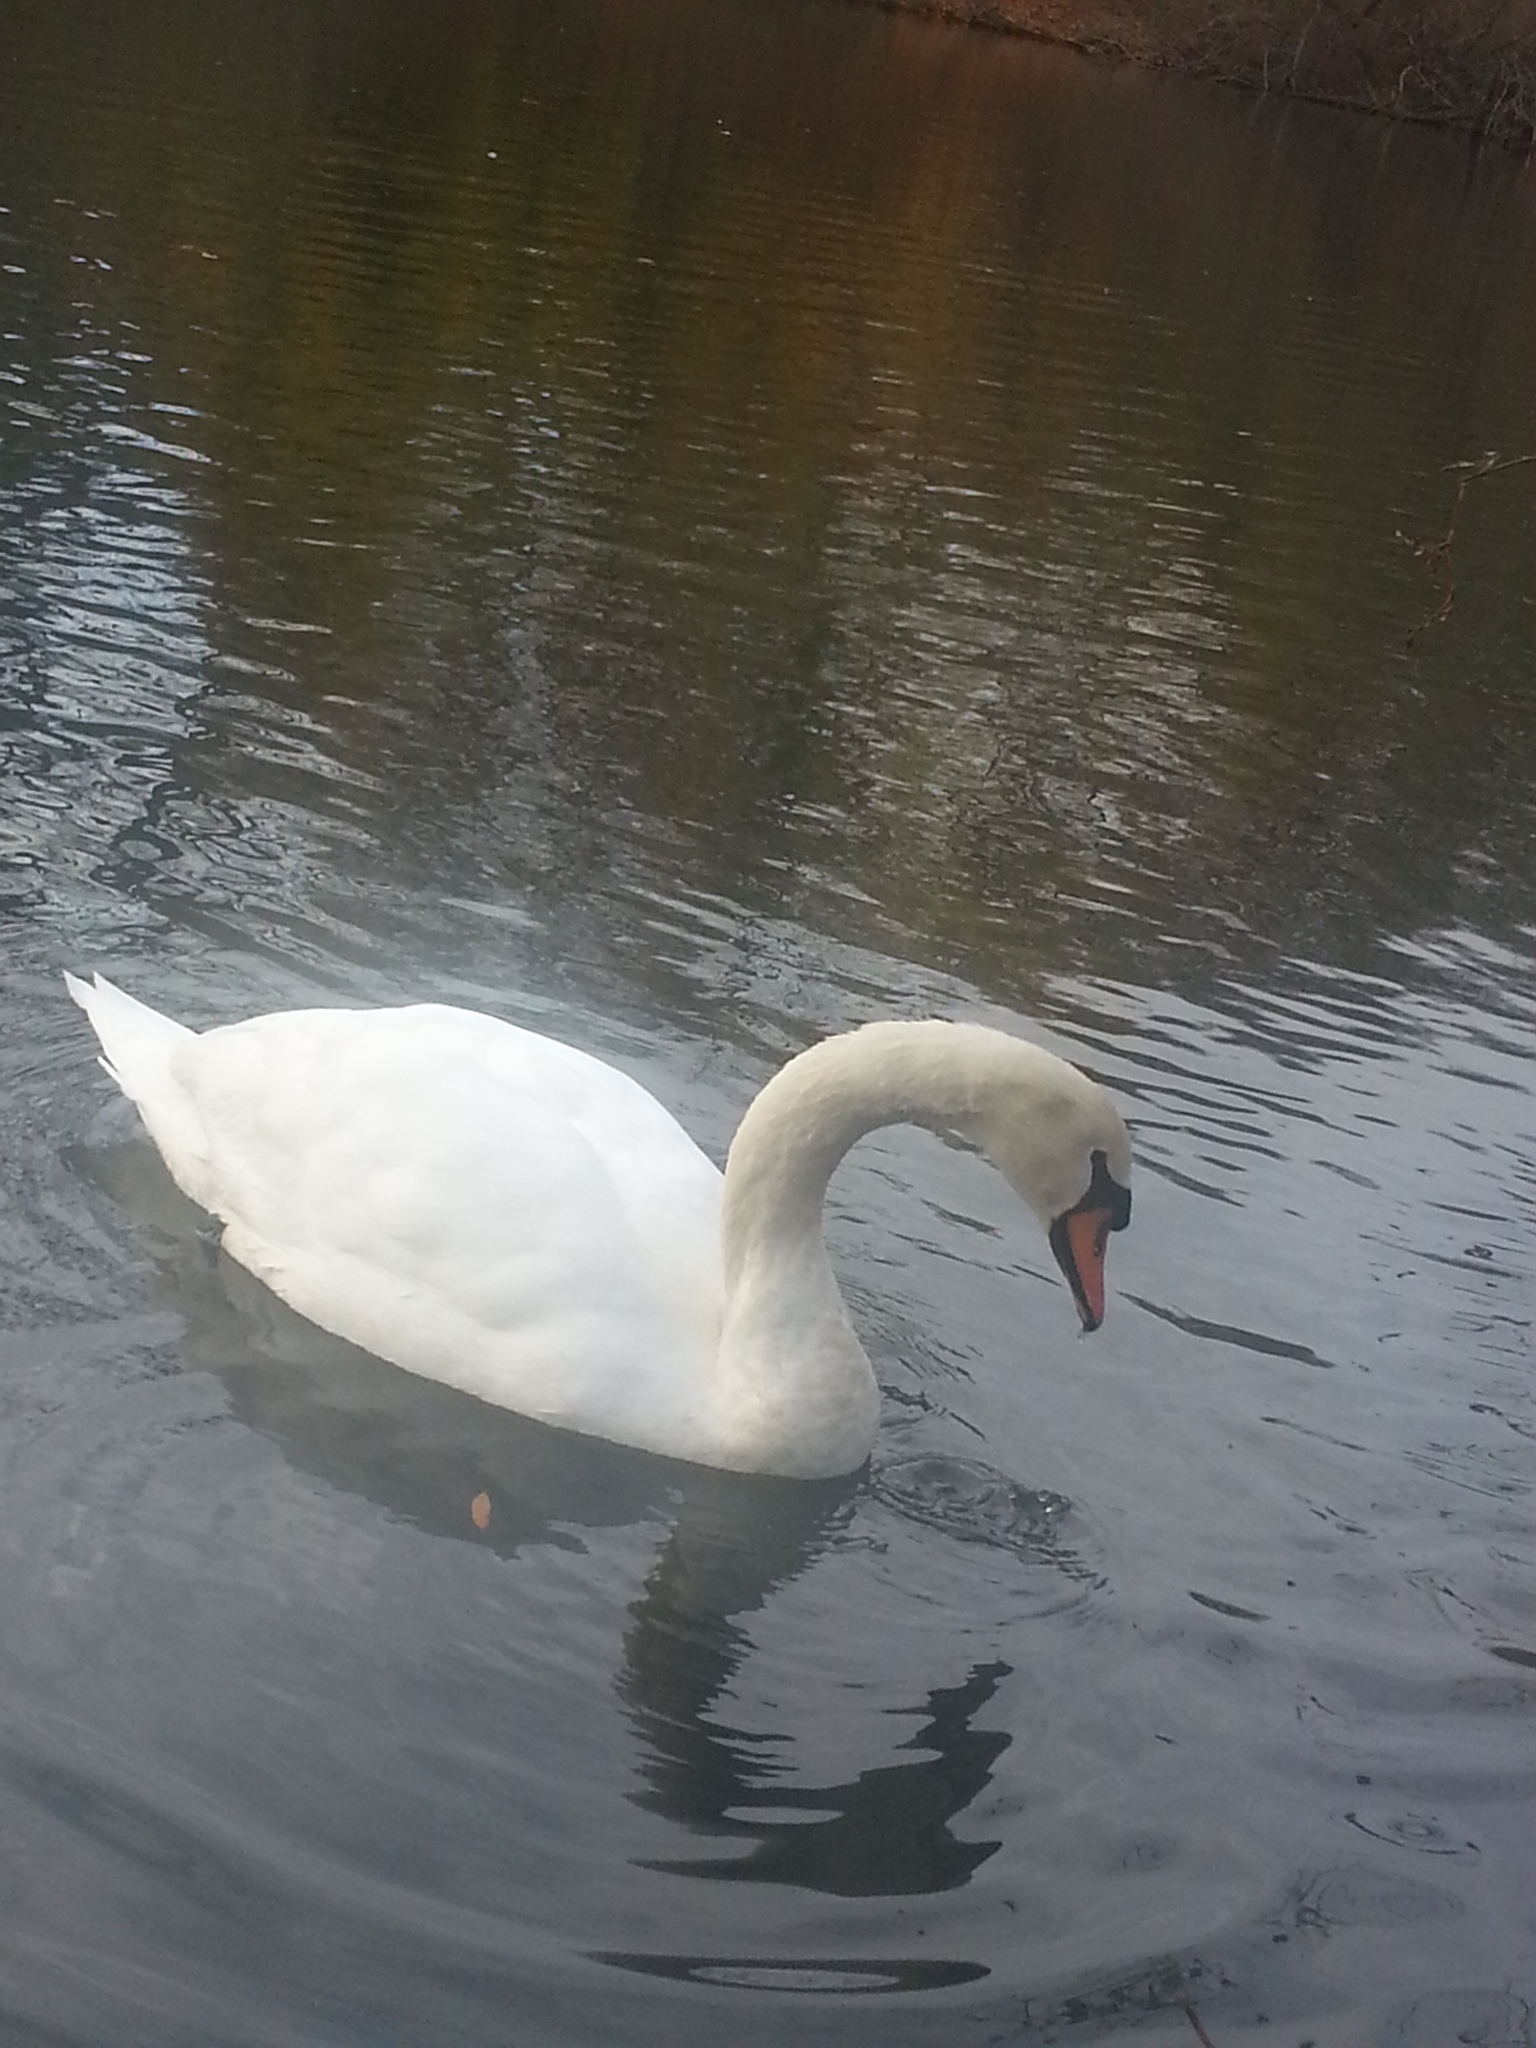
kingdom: Animalia
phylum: Chordata
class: Aves
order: Anseriformes
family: Anatidae
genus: Cygnus
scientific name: Cygnus olor
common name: Mute swan
